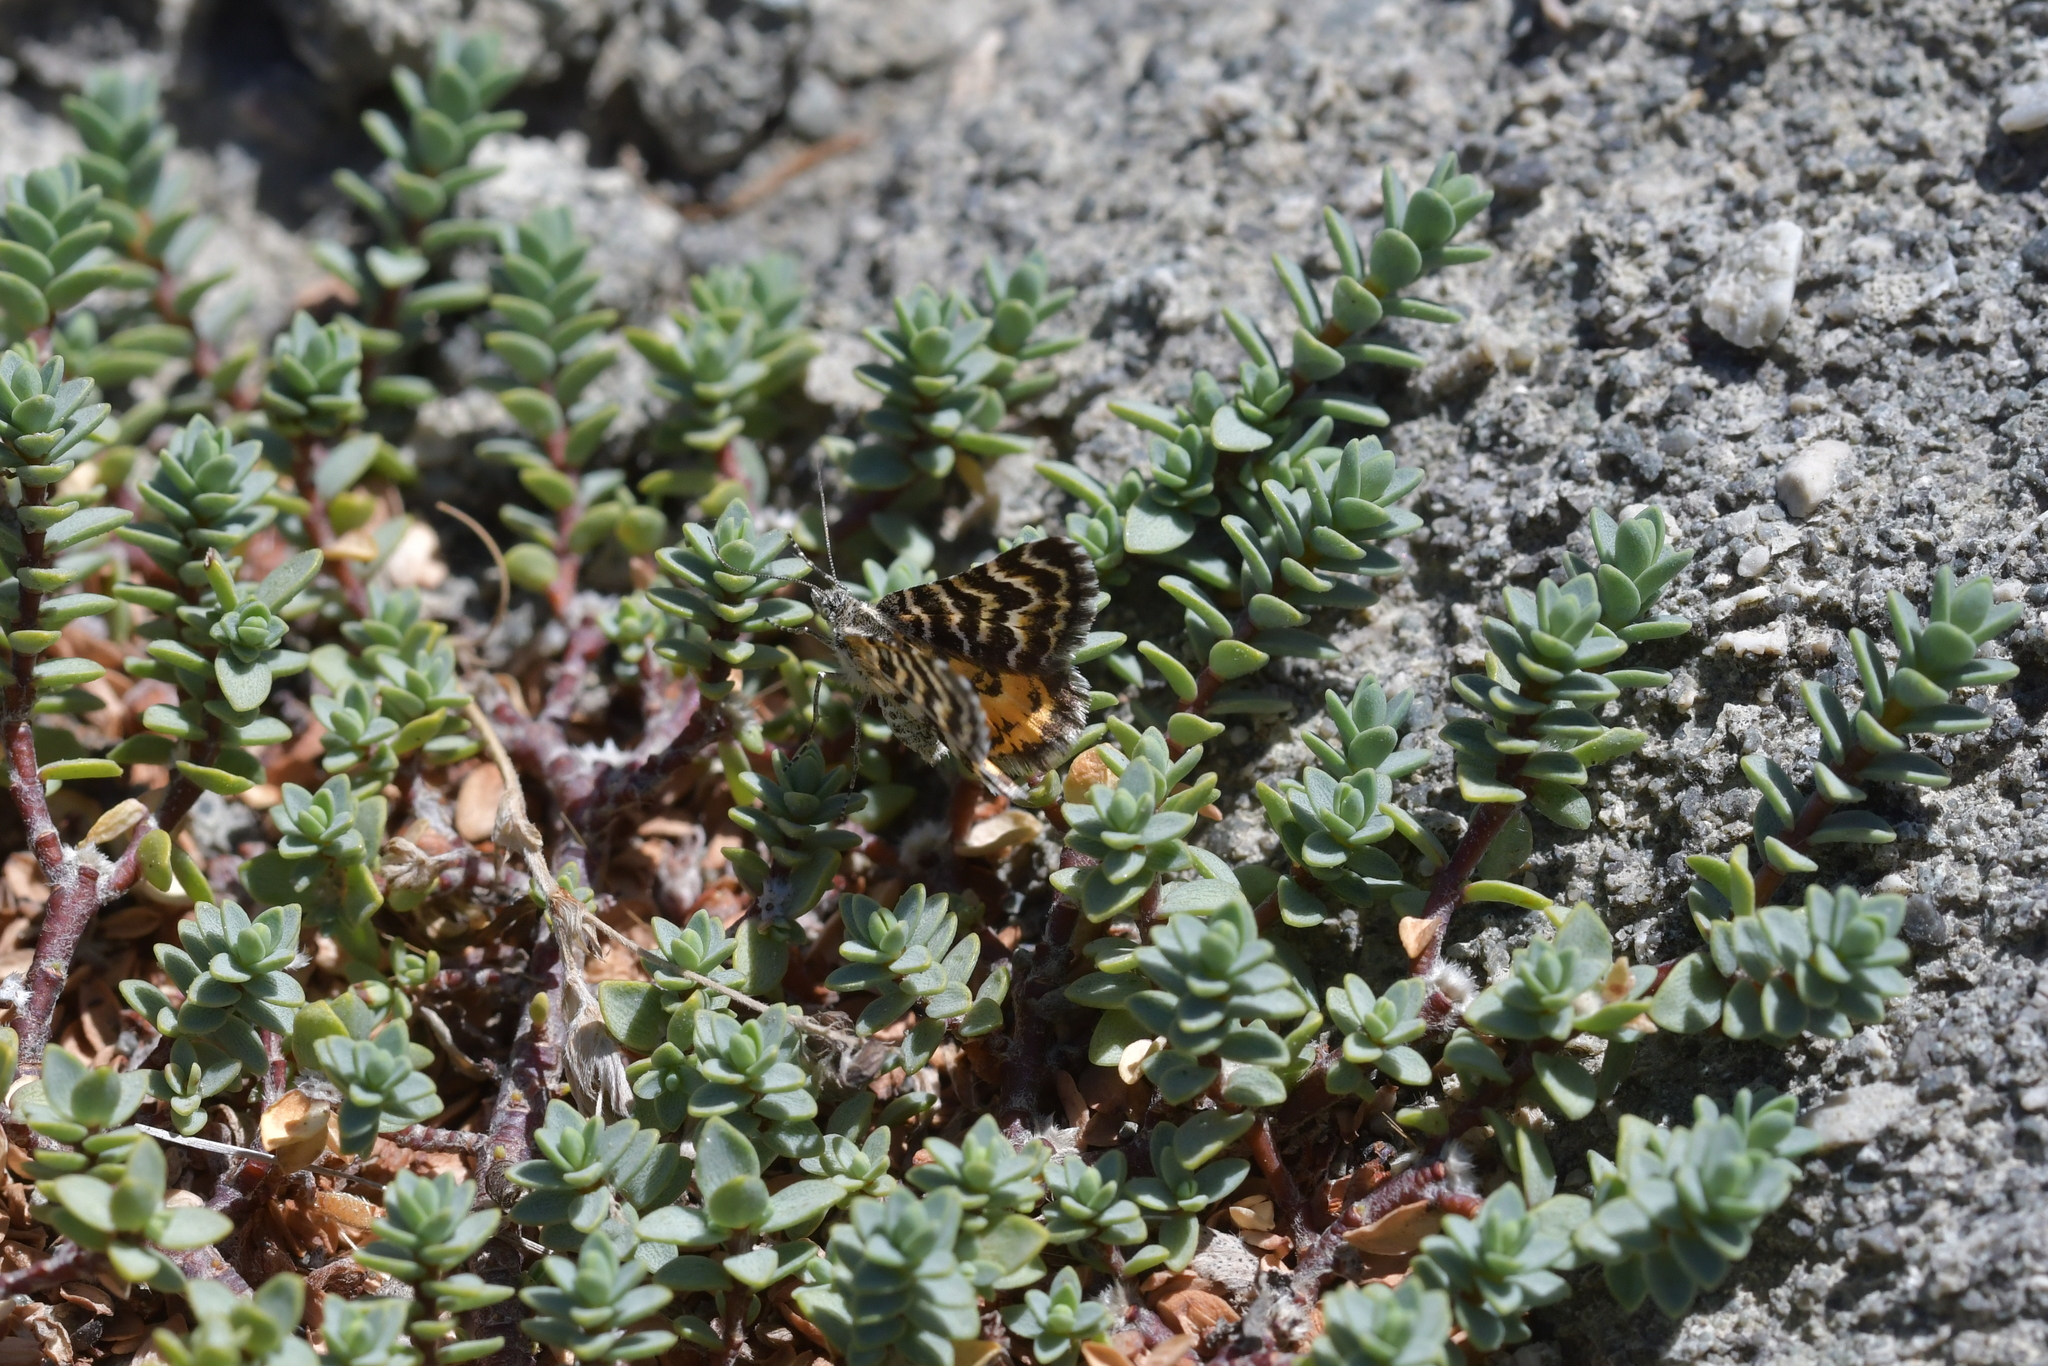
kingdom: Animalia
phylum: Arthropoda
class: Insecta
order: Lepidoptera
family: Geometridae
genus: Notoreas
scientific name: Notoreas perornata
